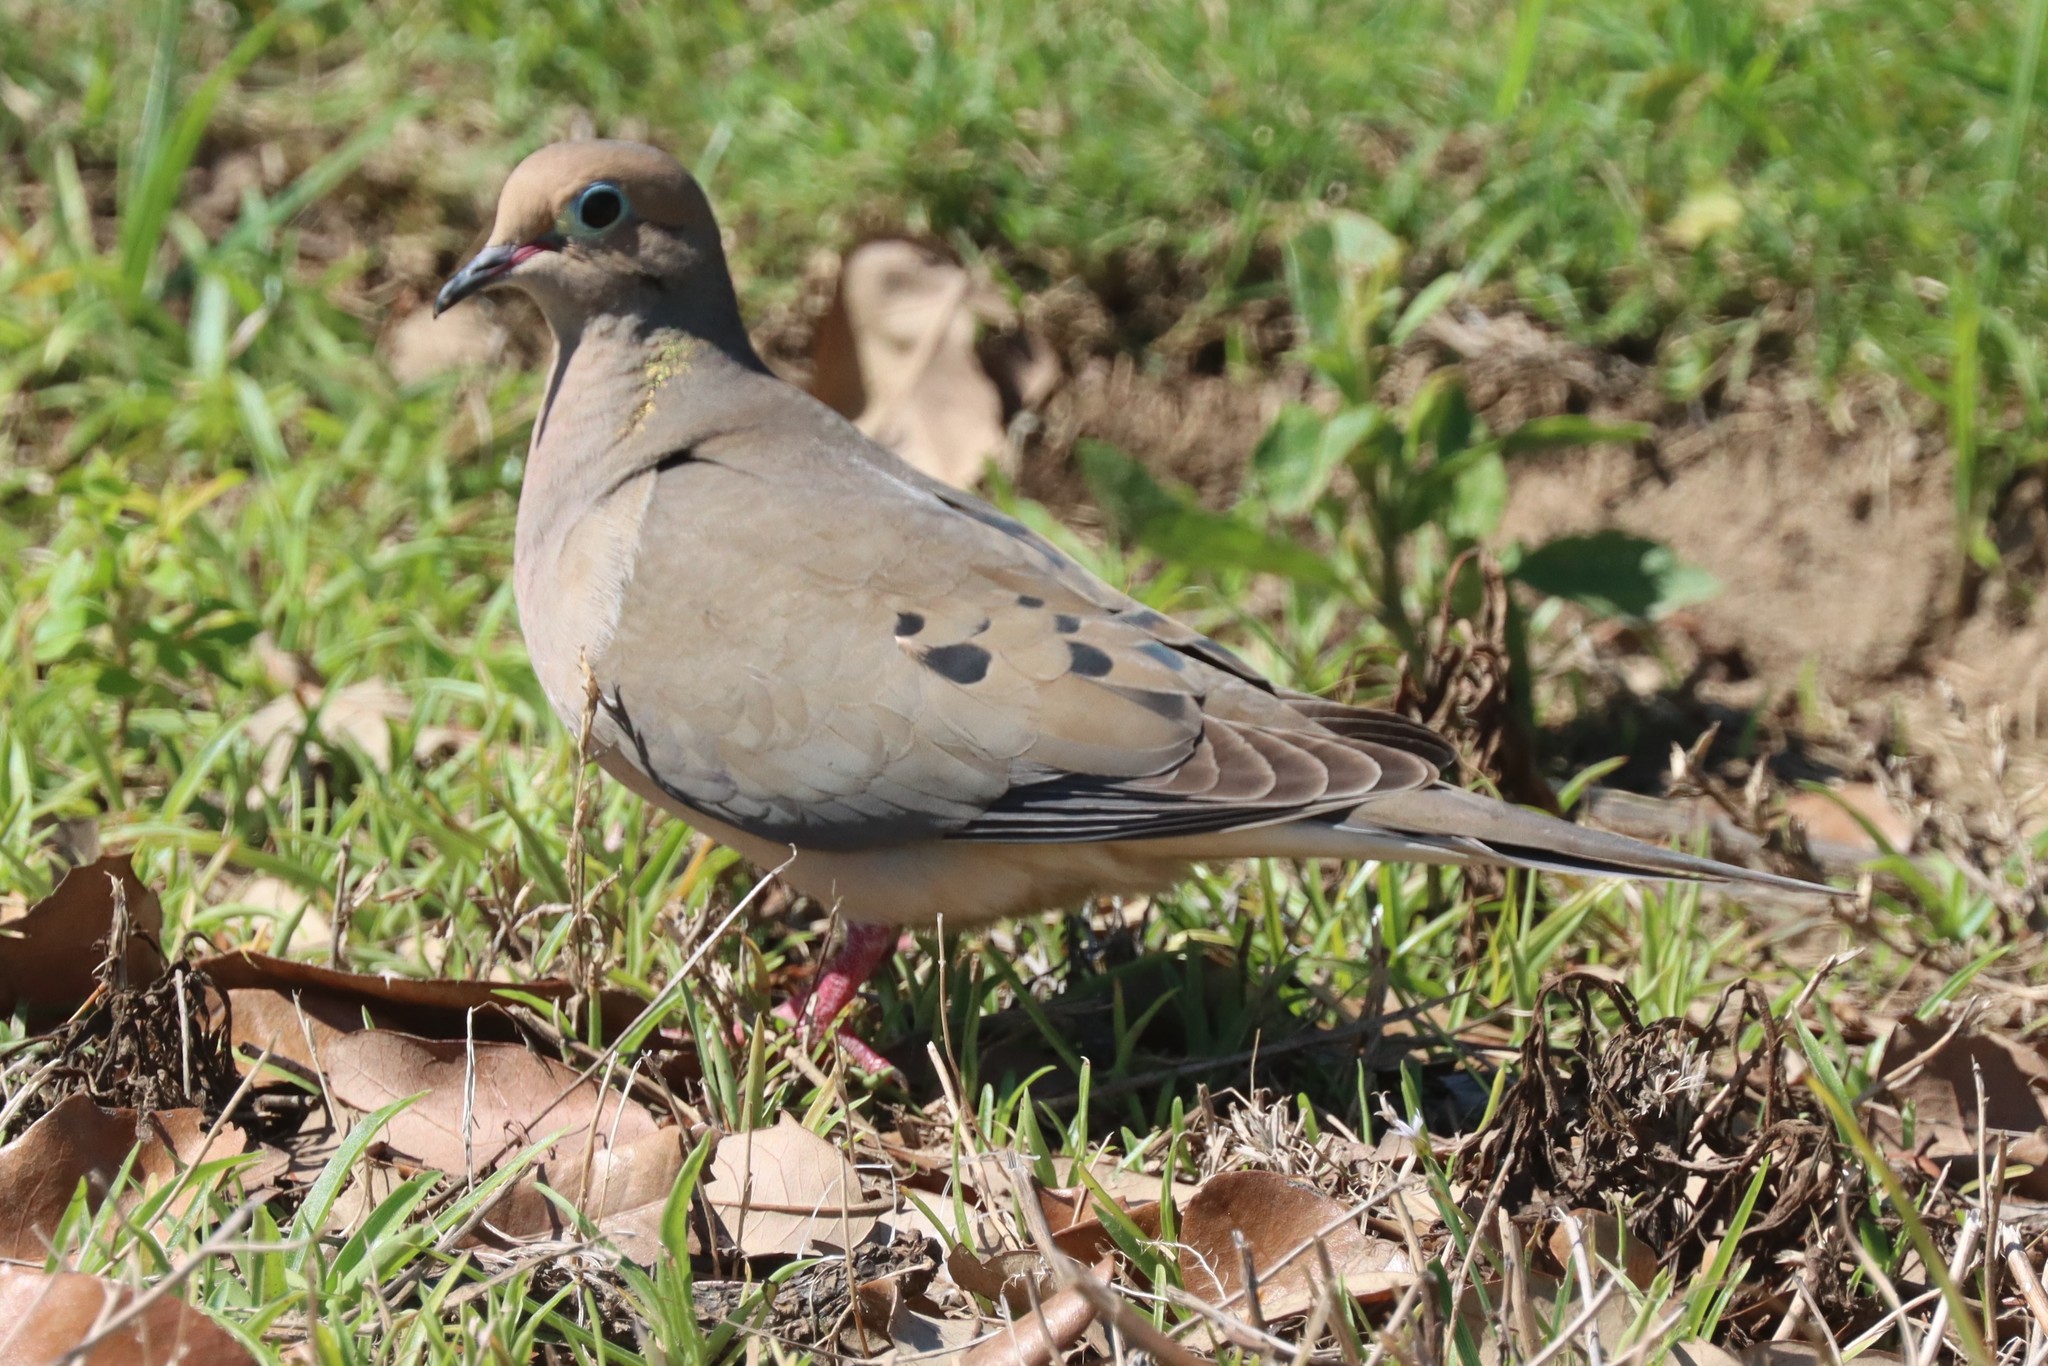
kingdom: Animalia
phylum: Chordata
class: Aves
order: Columbiformes
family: Columbidae
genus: Zenaida
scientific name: Zenaida macroura
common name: Mourning dove
